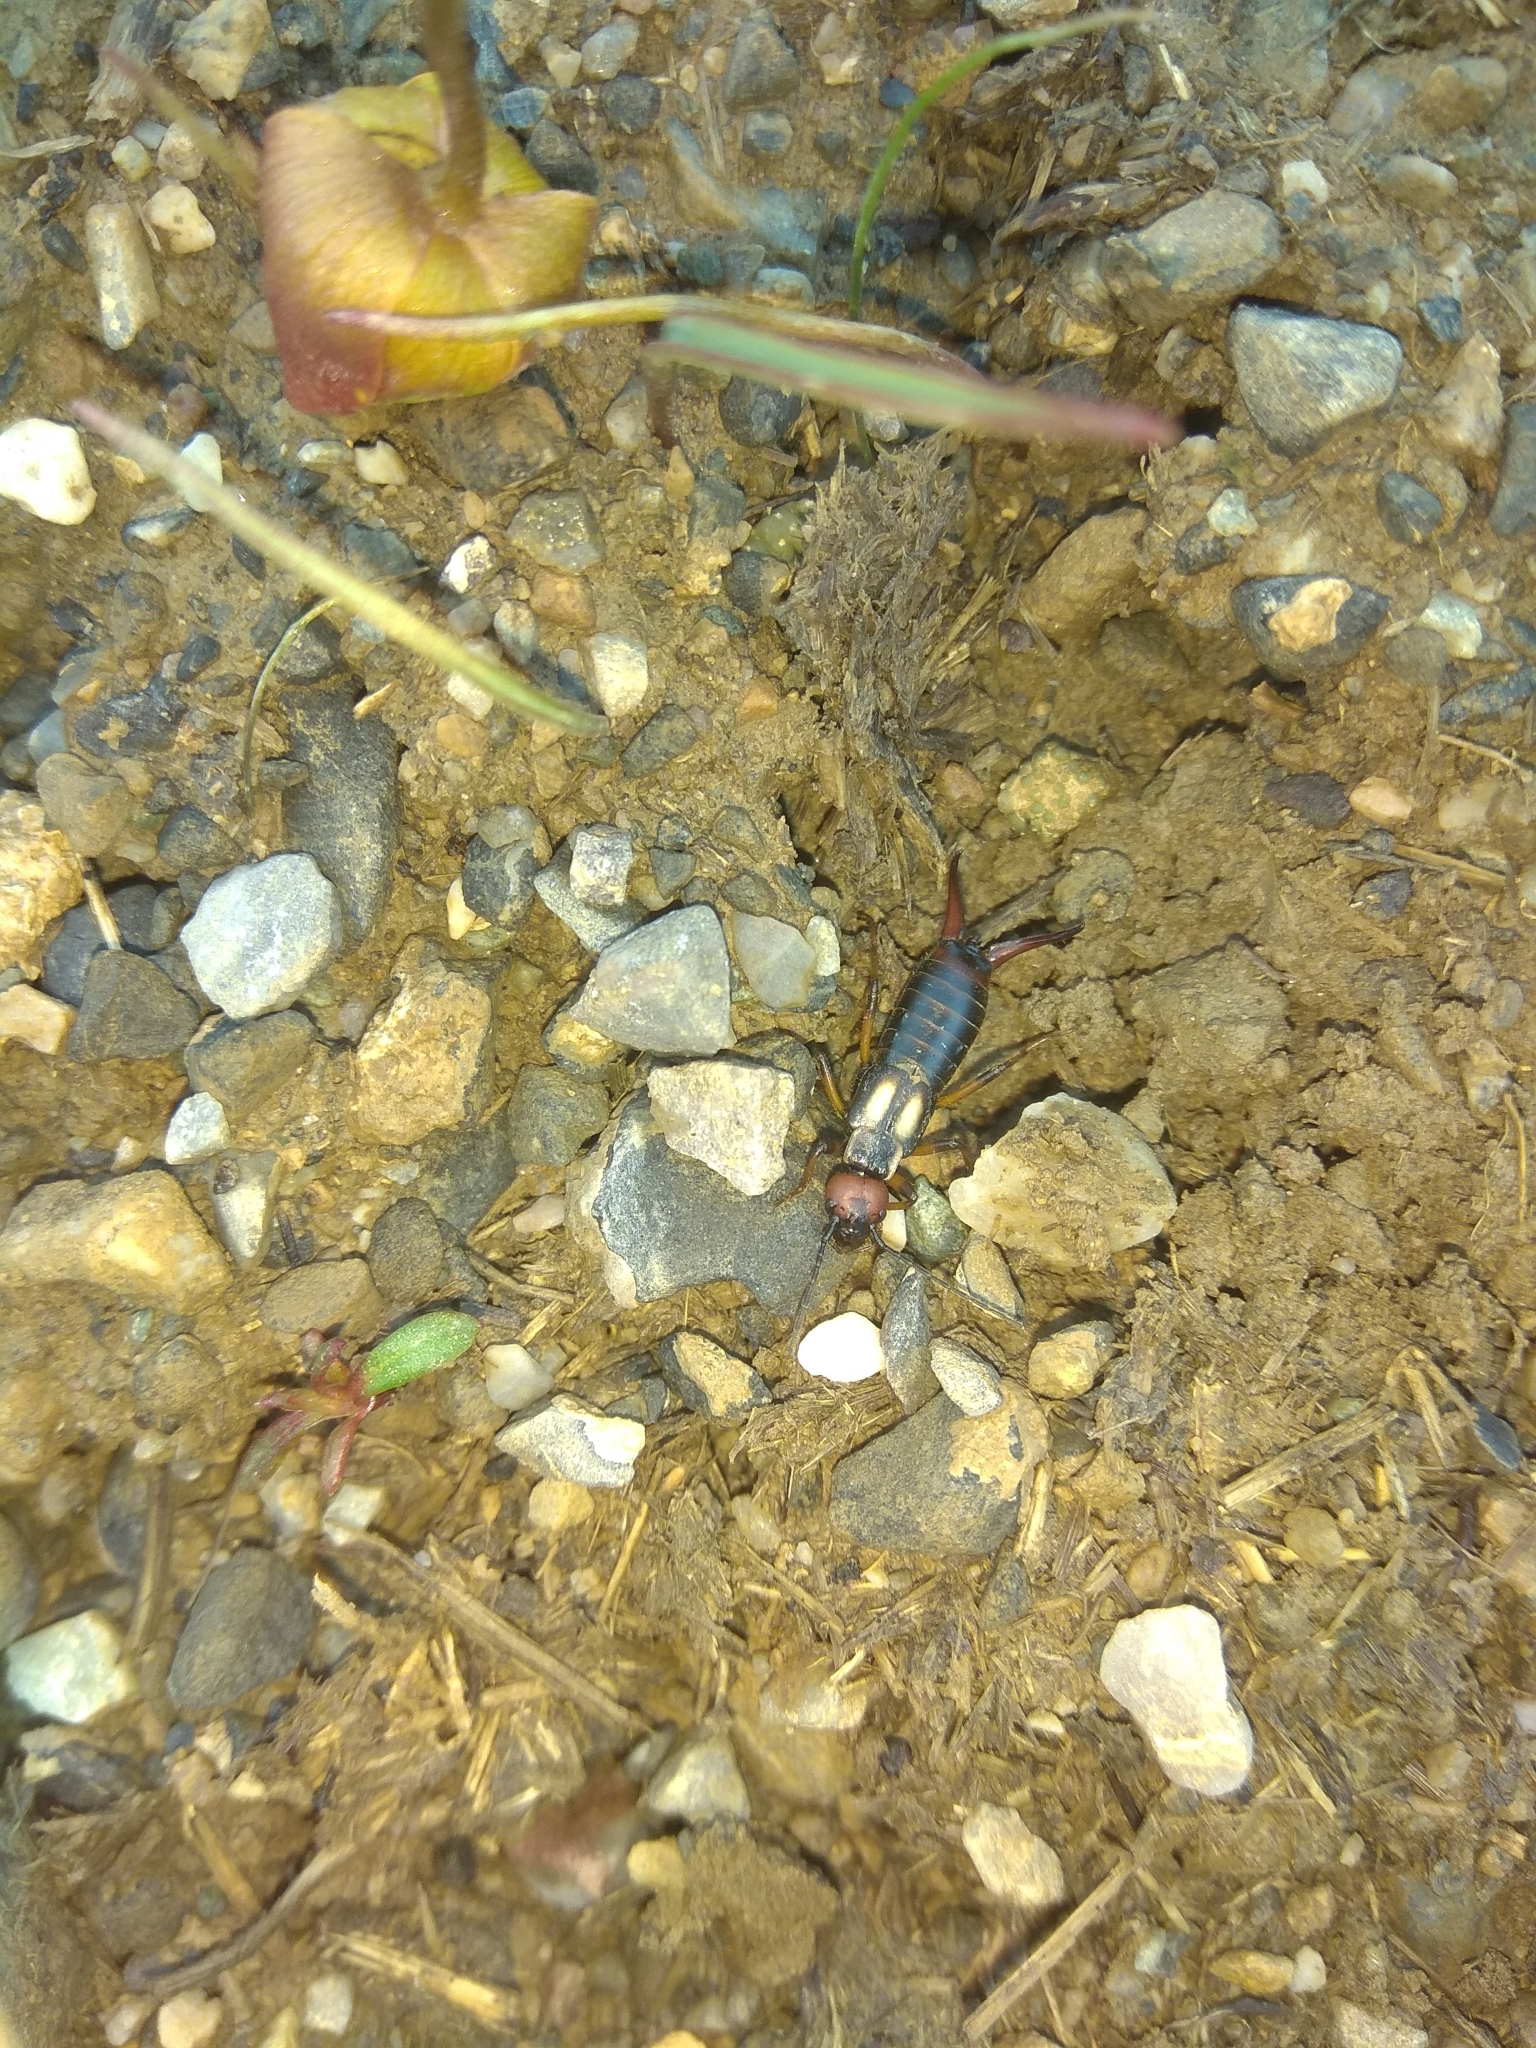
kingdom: Animalia
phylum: Arthropoda
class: Insecta
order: Dermaptera
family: Forficulidae
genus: Oreasiobia
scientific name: Oreasiobia fedtschenkoi
